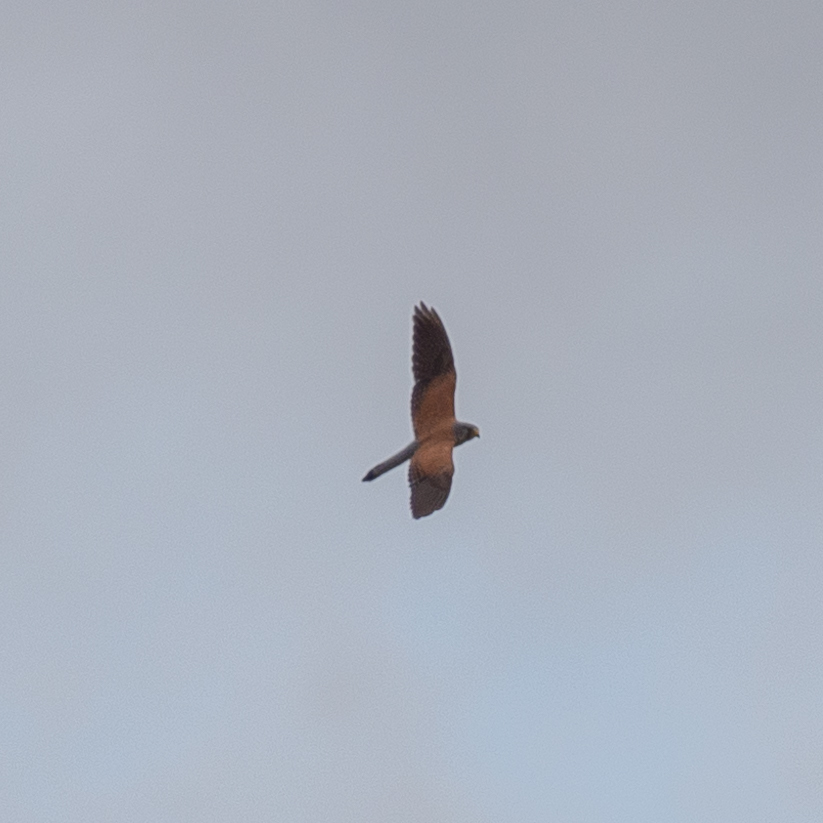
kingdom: Animalia
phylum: Chordata
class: Aves
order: Falconiformes
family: Falconidae
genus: Falco
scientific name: Falco tinnunculus
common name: Common kestrel
